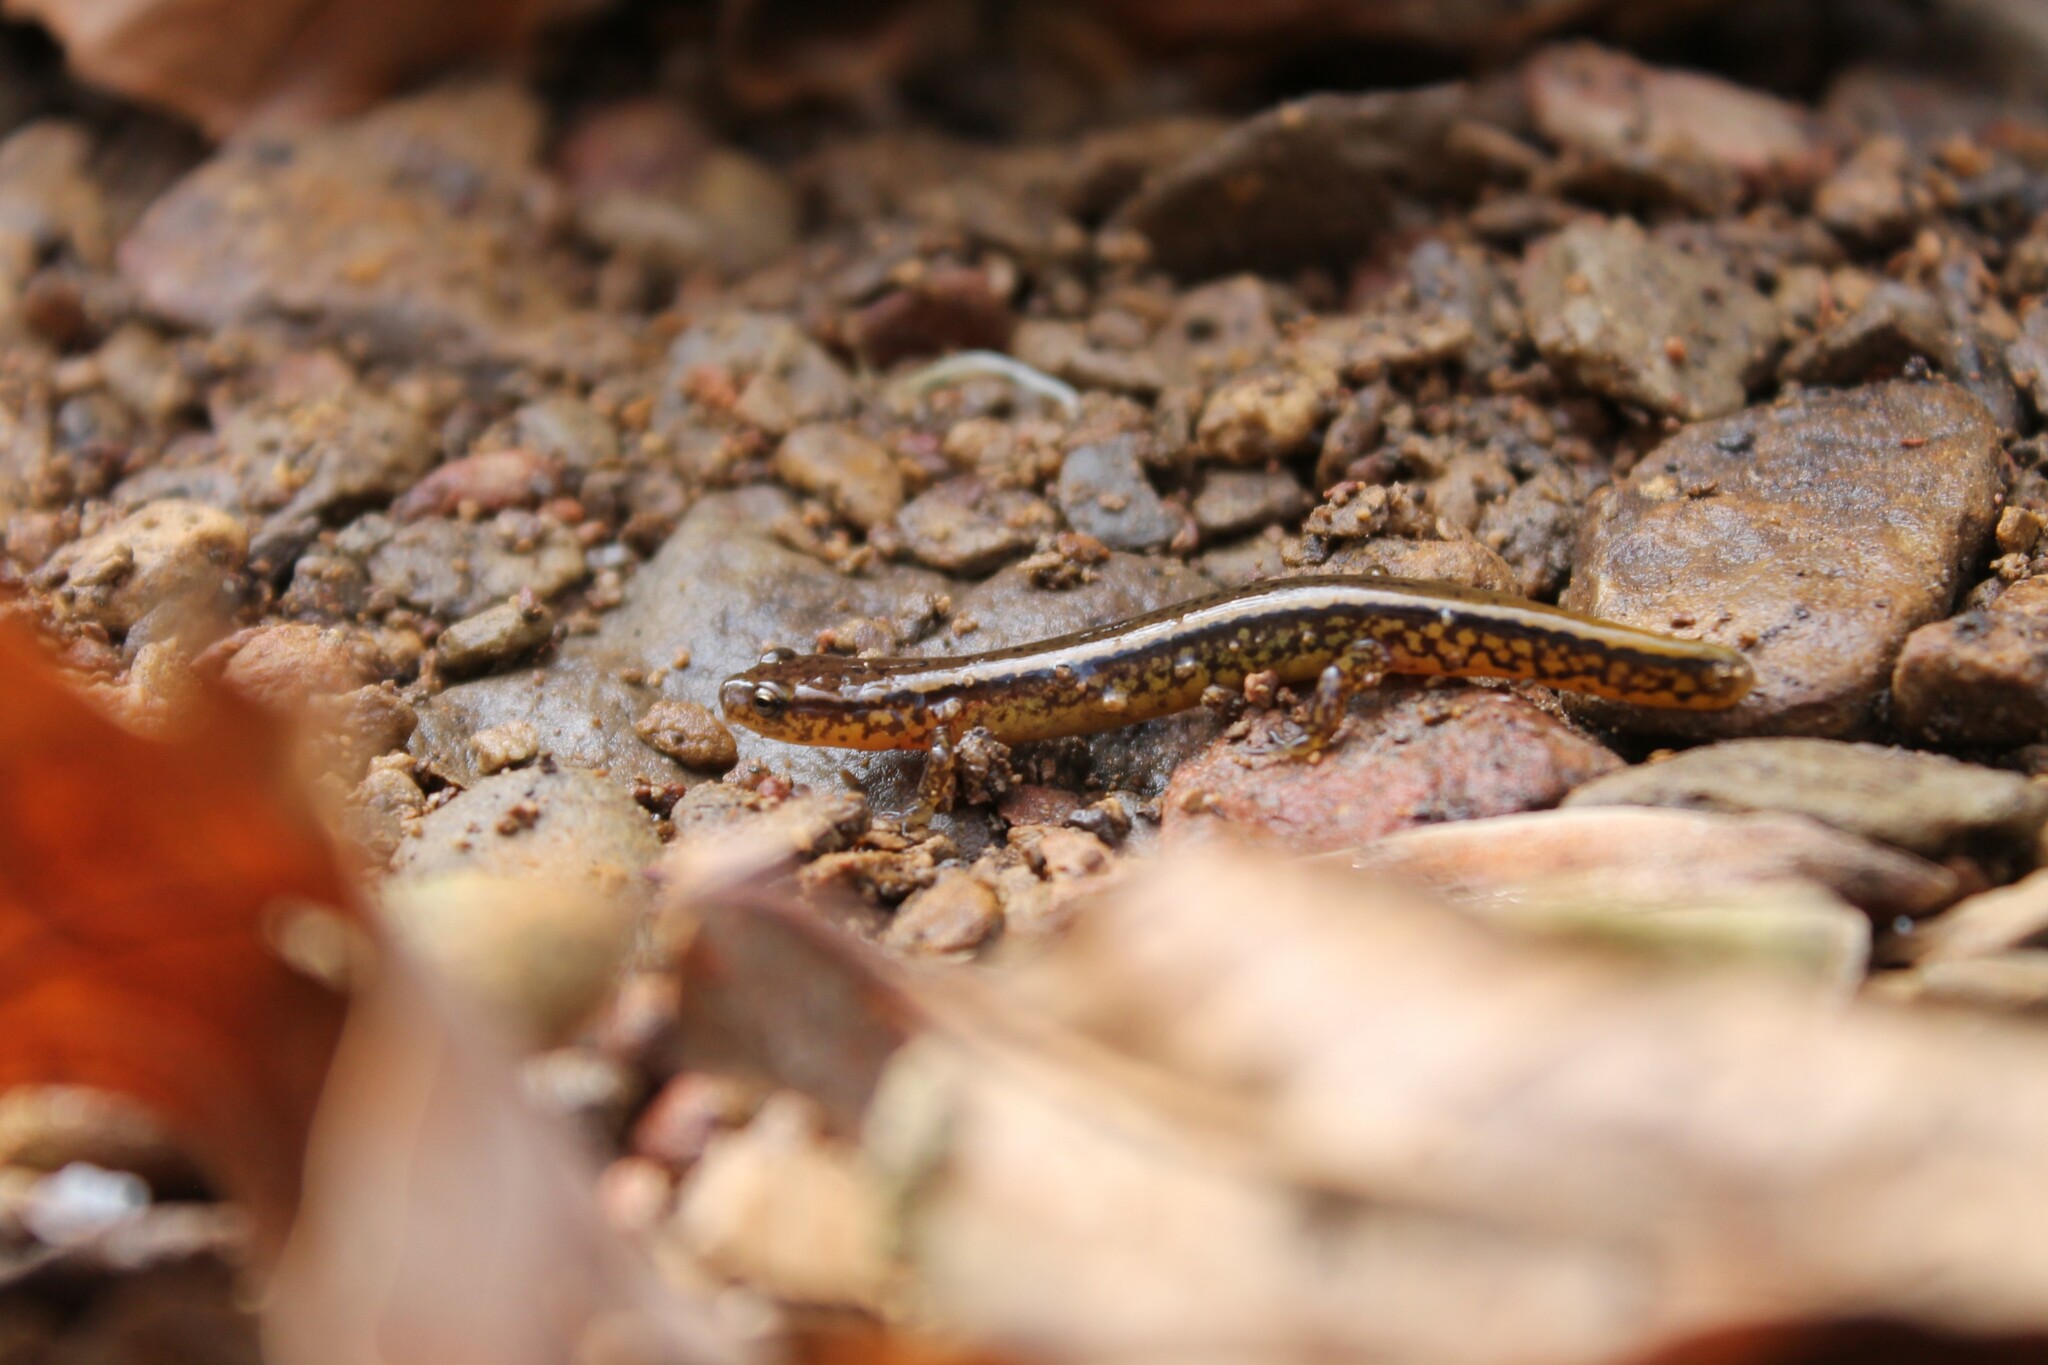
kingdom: Animalia
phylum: Chordata
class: Amphibia
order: Caudata
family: Plethodontidae
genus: Eurycea
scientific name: Eurycea cirrigera
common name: Southern two-lined salamander
